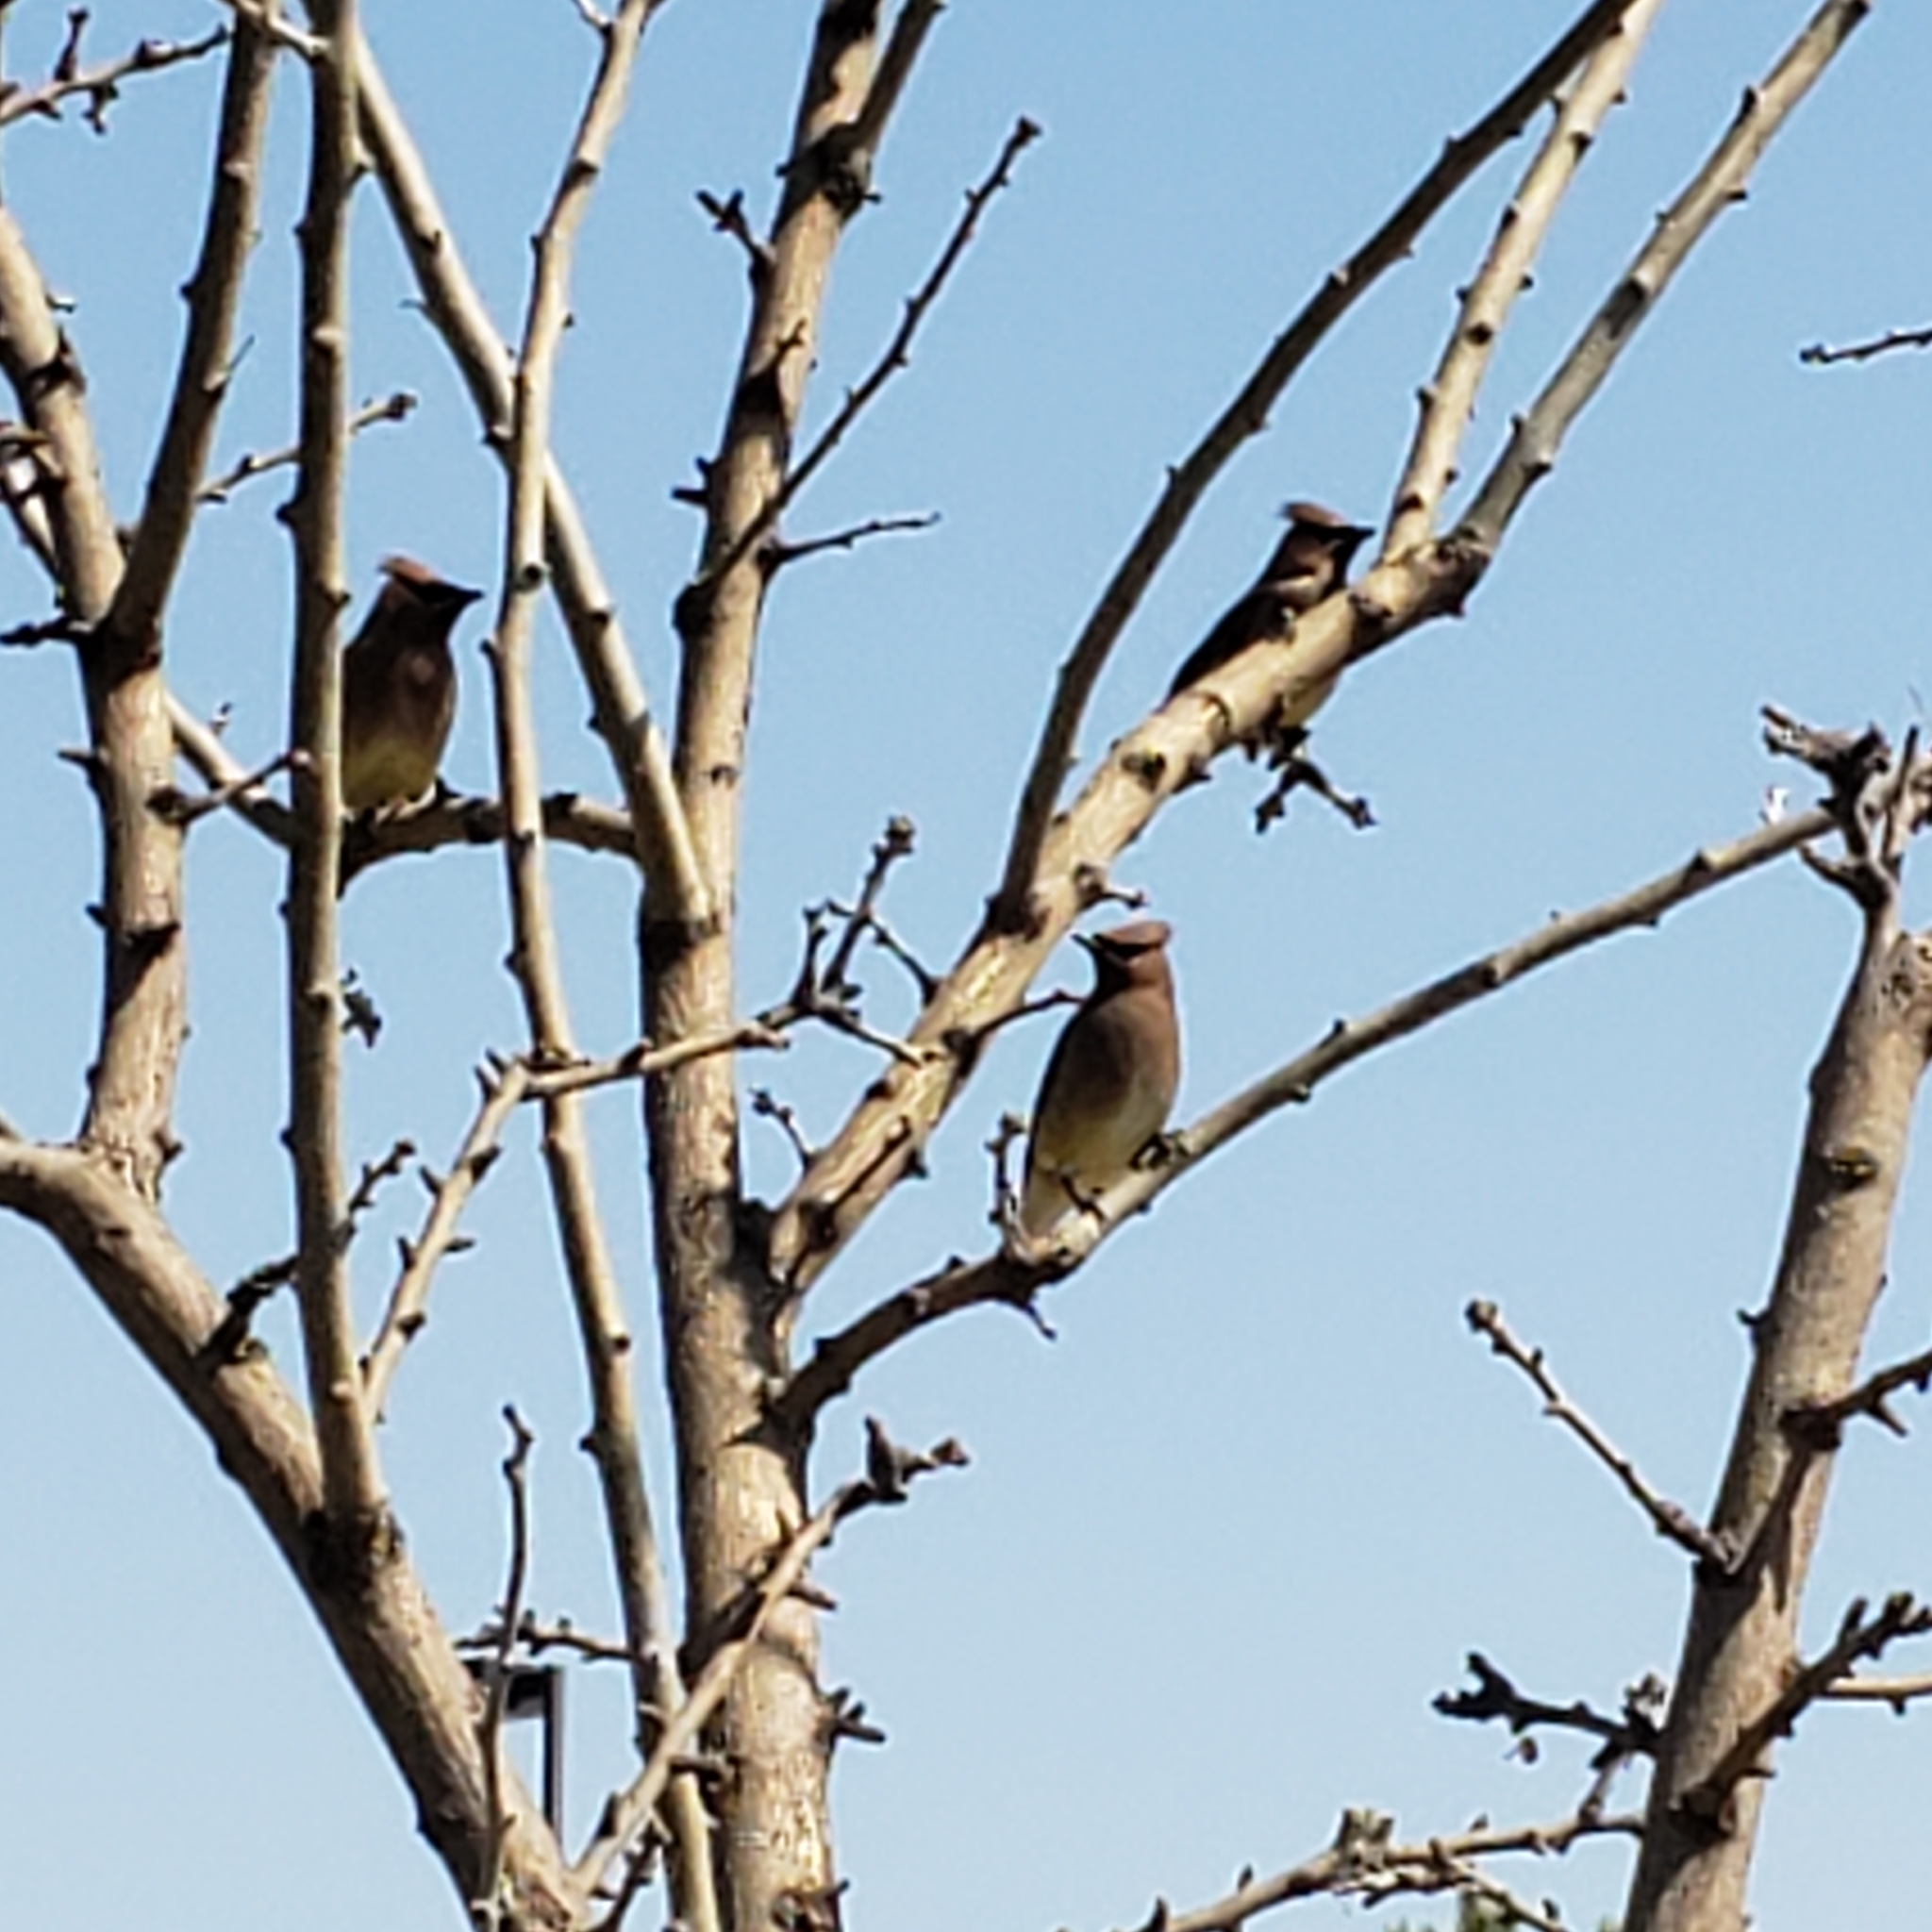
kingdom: Animalia
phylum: Chordata
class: Aves
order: Passeriformes
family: Bombycillidae
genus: Bombycilla
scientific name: Bombycilla cedrorum
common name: Cedar waxwing
